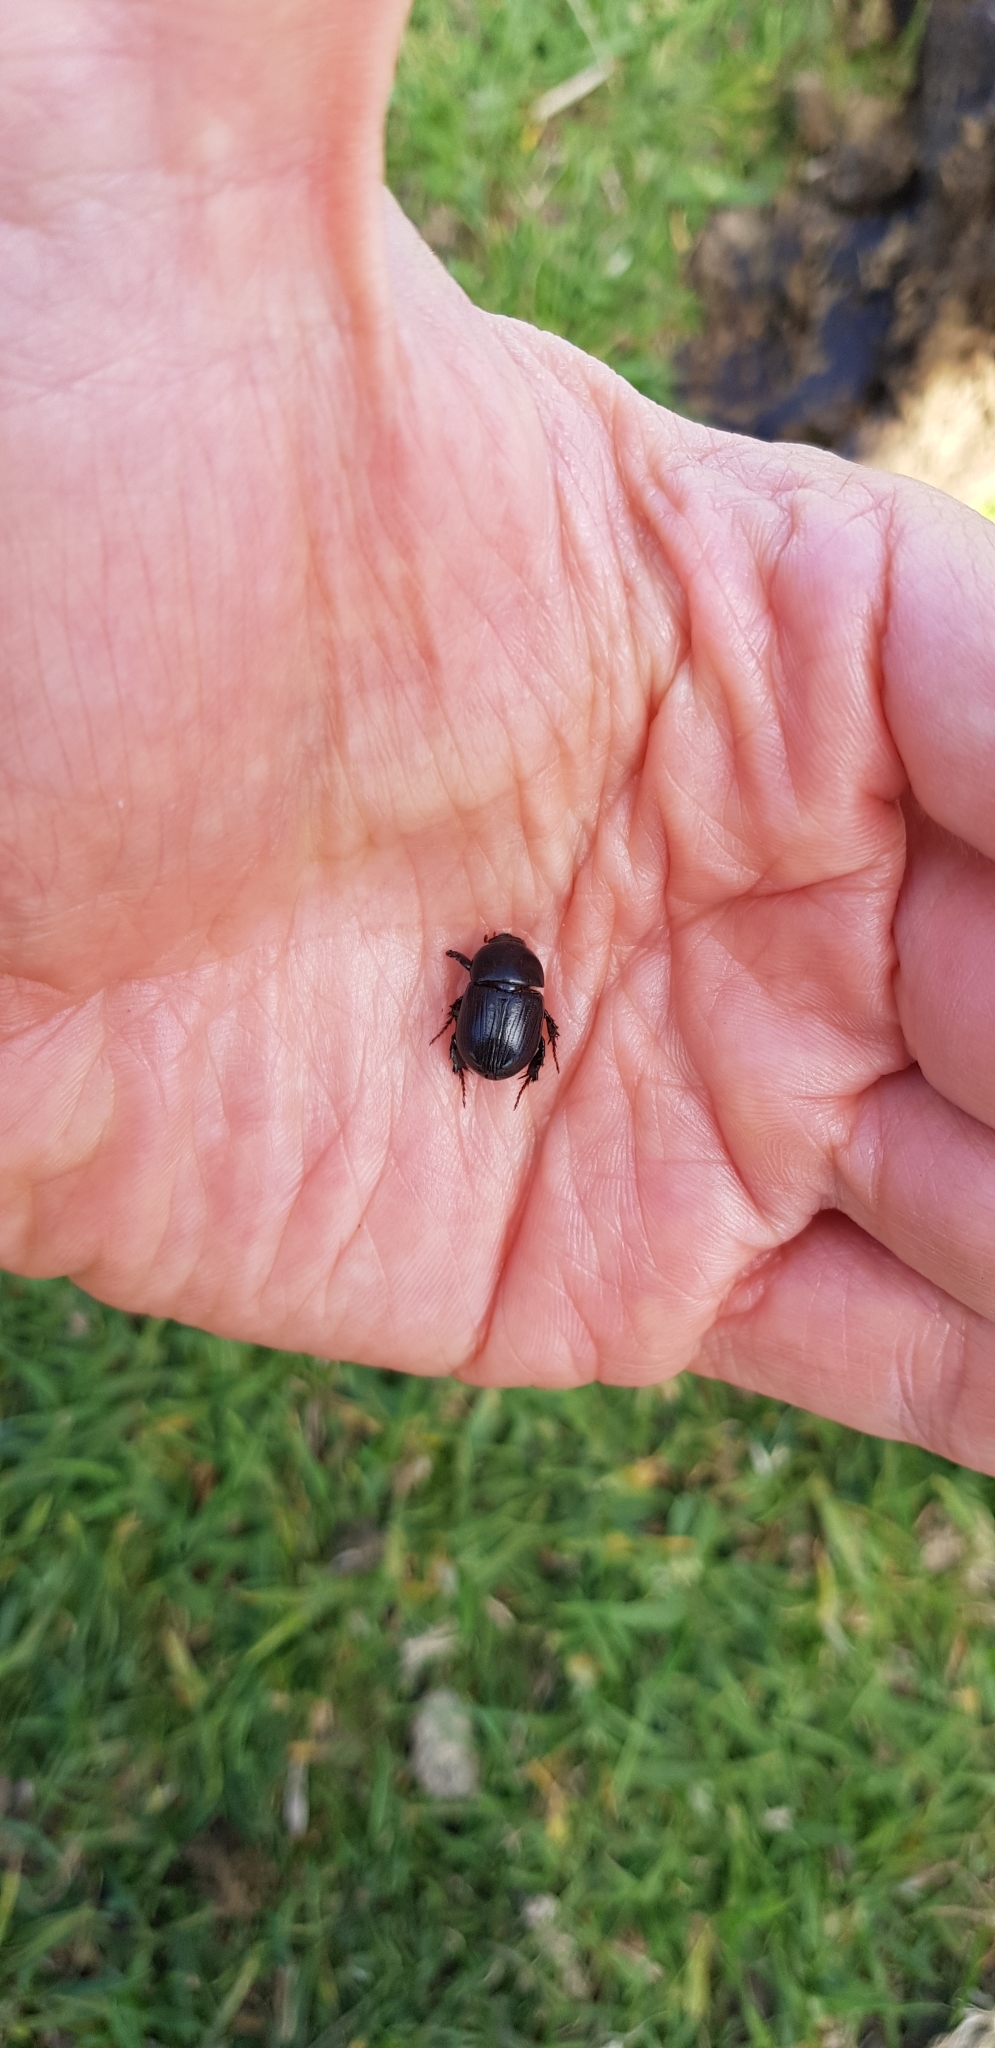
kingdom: Animalia
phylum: Arthropoda
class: Insecta
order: Coleoptera
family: Scarabaeidae
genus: Heteronychus
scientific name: Heteronychus arator
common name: African black beetle
